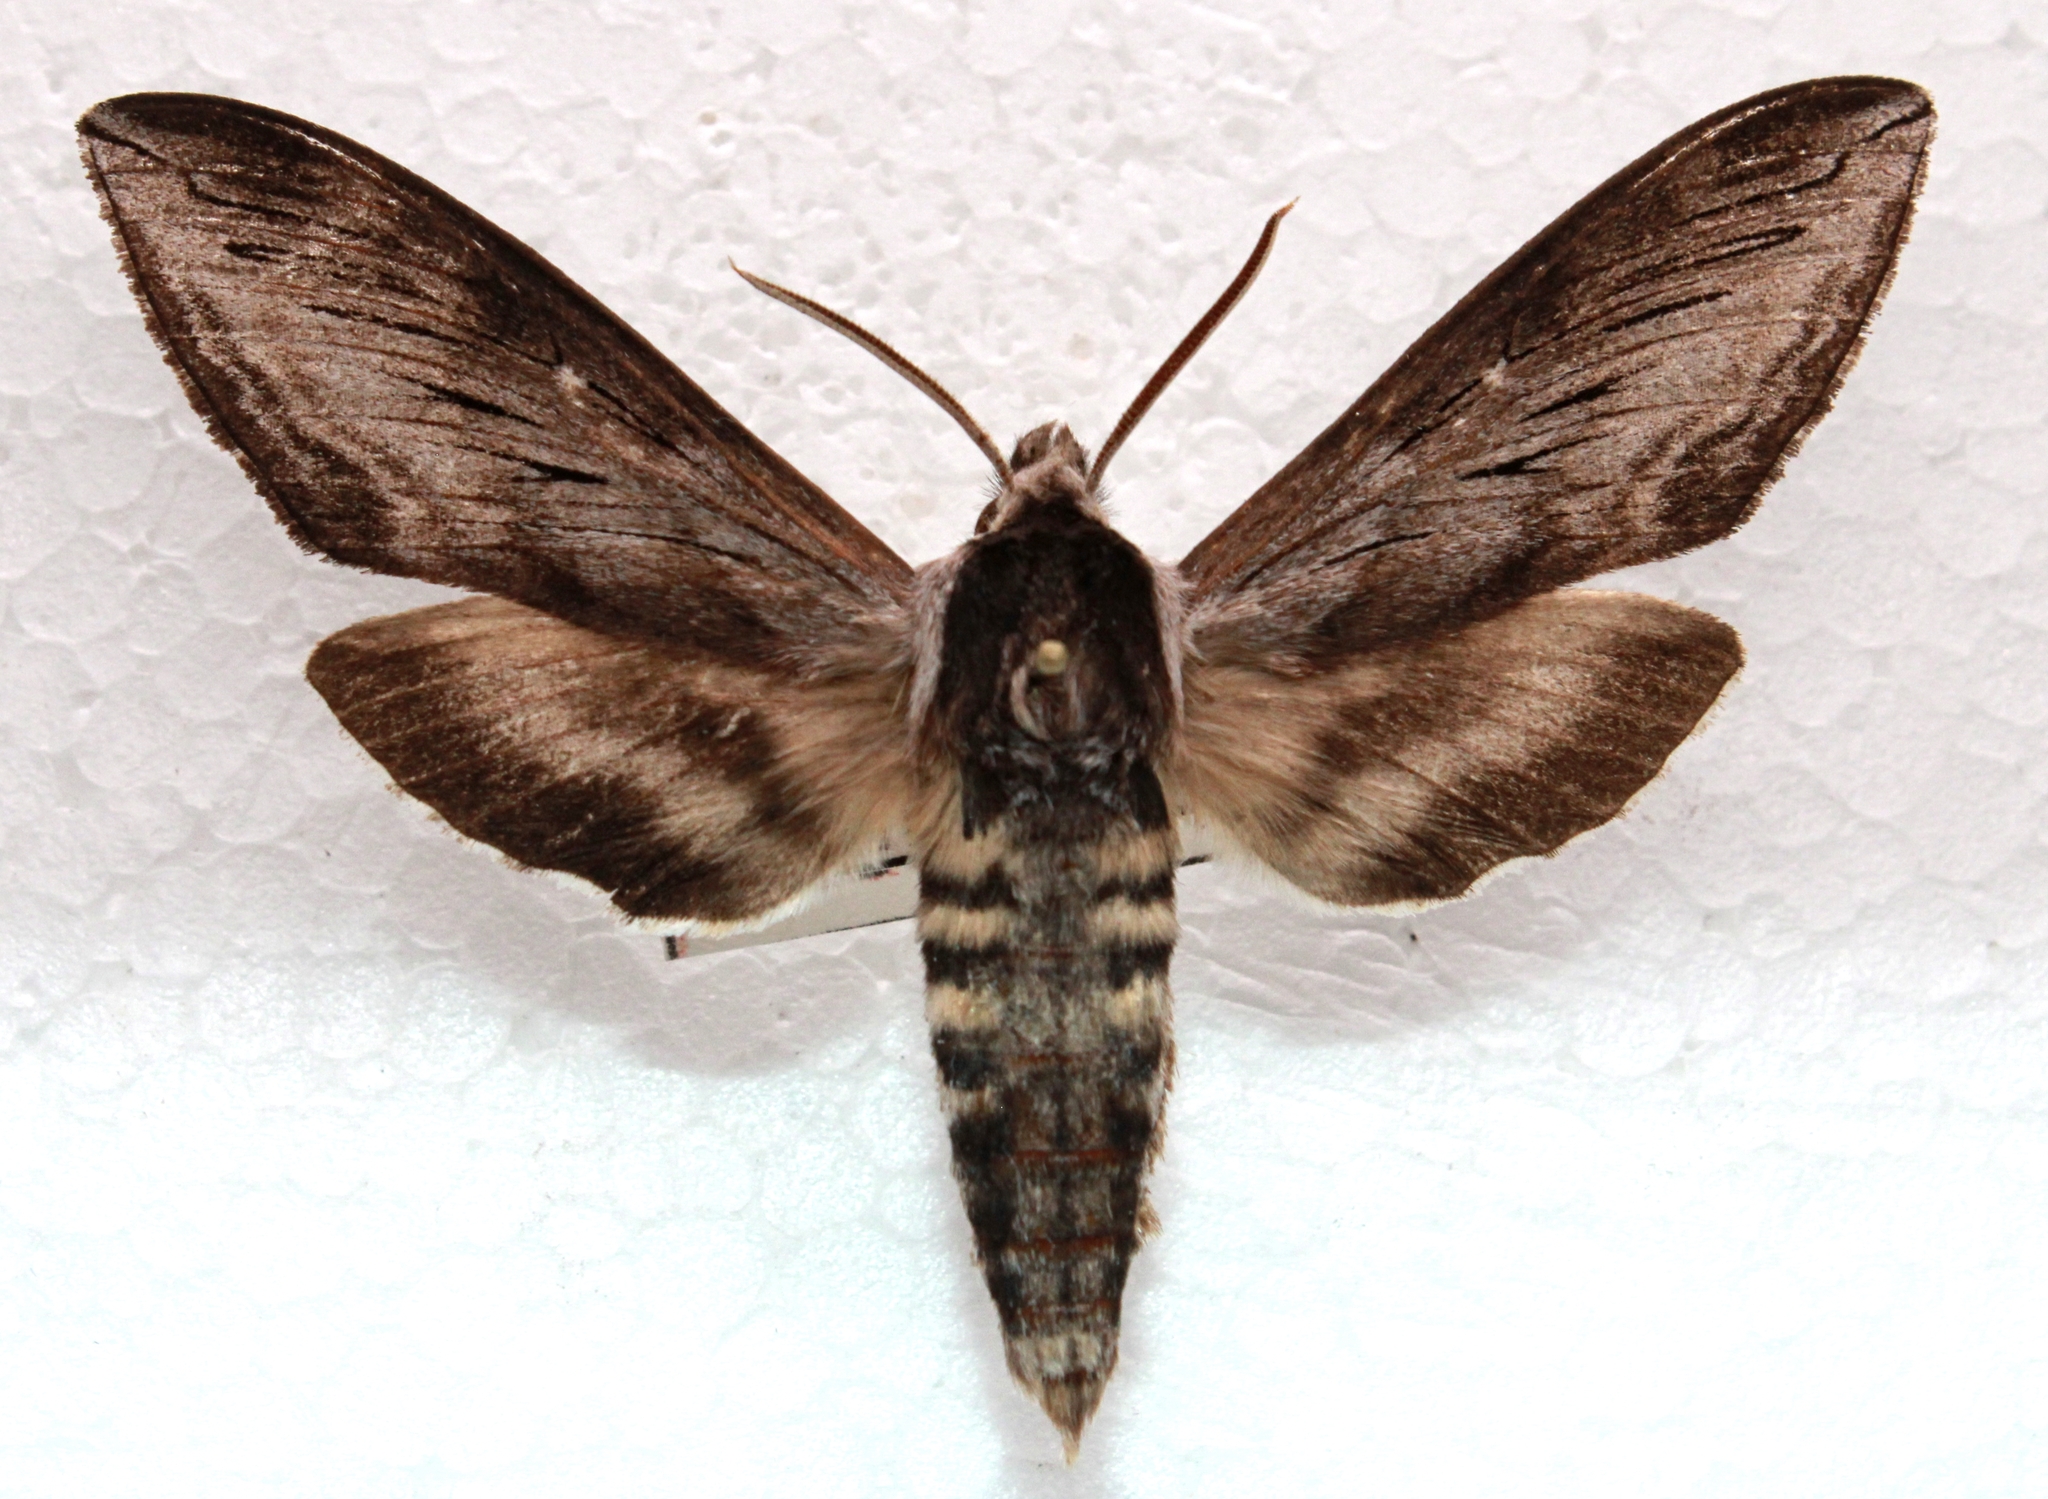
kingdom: Animalia
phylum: Arthropoda
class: Insecta
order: Lepidoptera
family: Sphingidae
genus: Sphinx
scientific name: Sphinx gordius
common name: Apple sphinx
